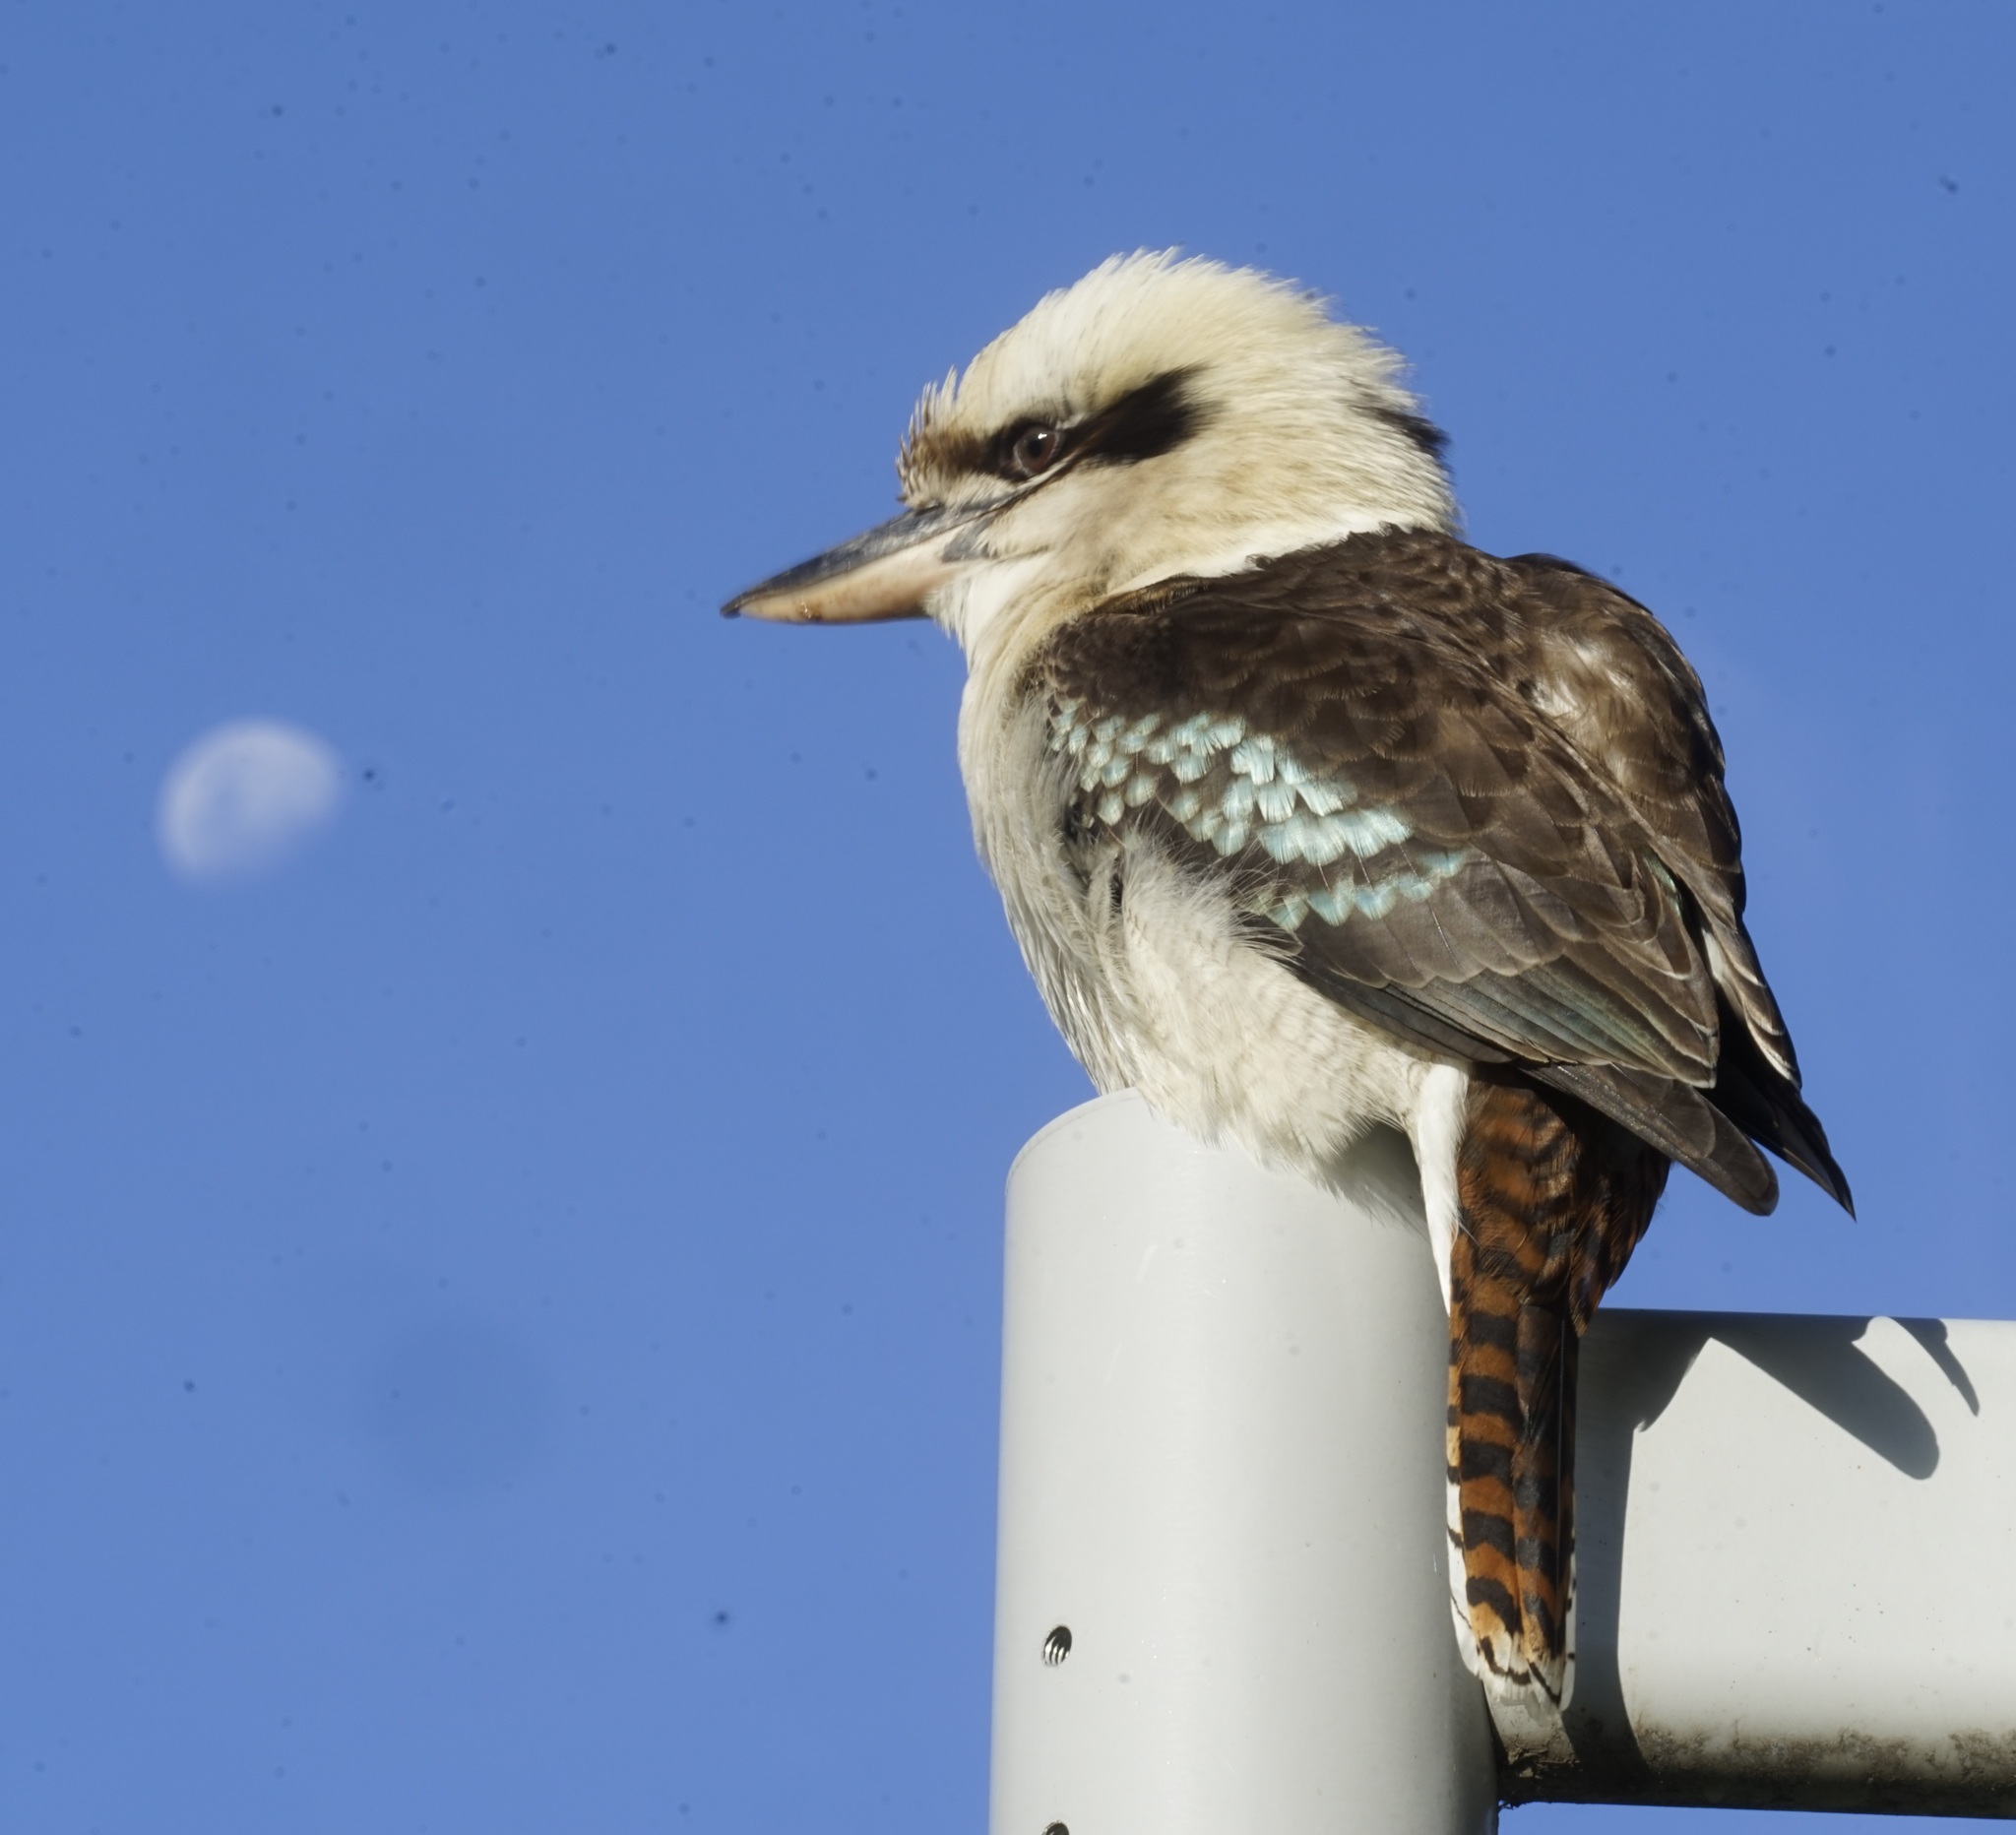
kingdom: Animalia
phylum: Chordata
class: Aves
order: Coraciiformes
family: Alcedinidae
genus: Dacelo
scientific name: Dacelo novaeguineae
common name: Laughing kookaburra
